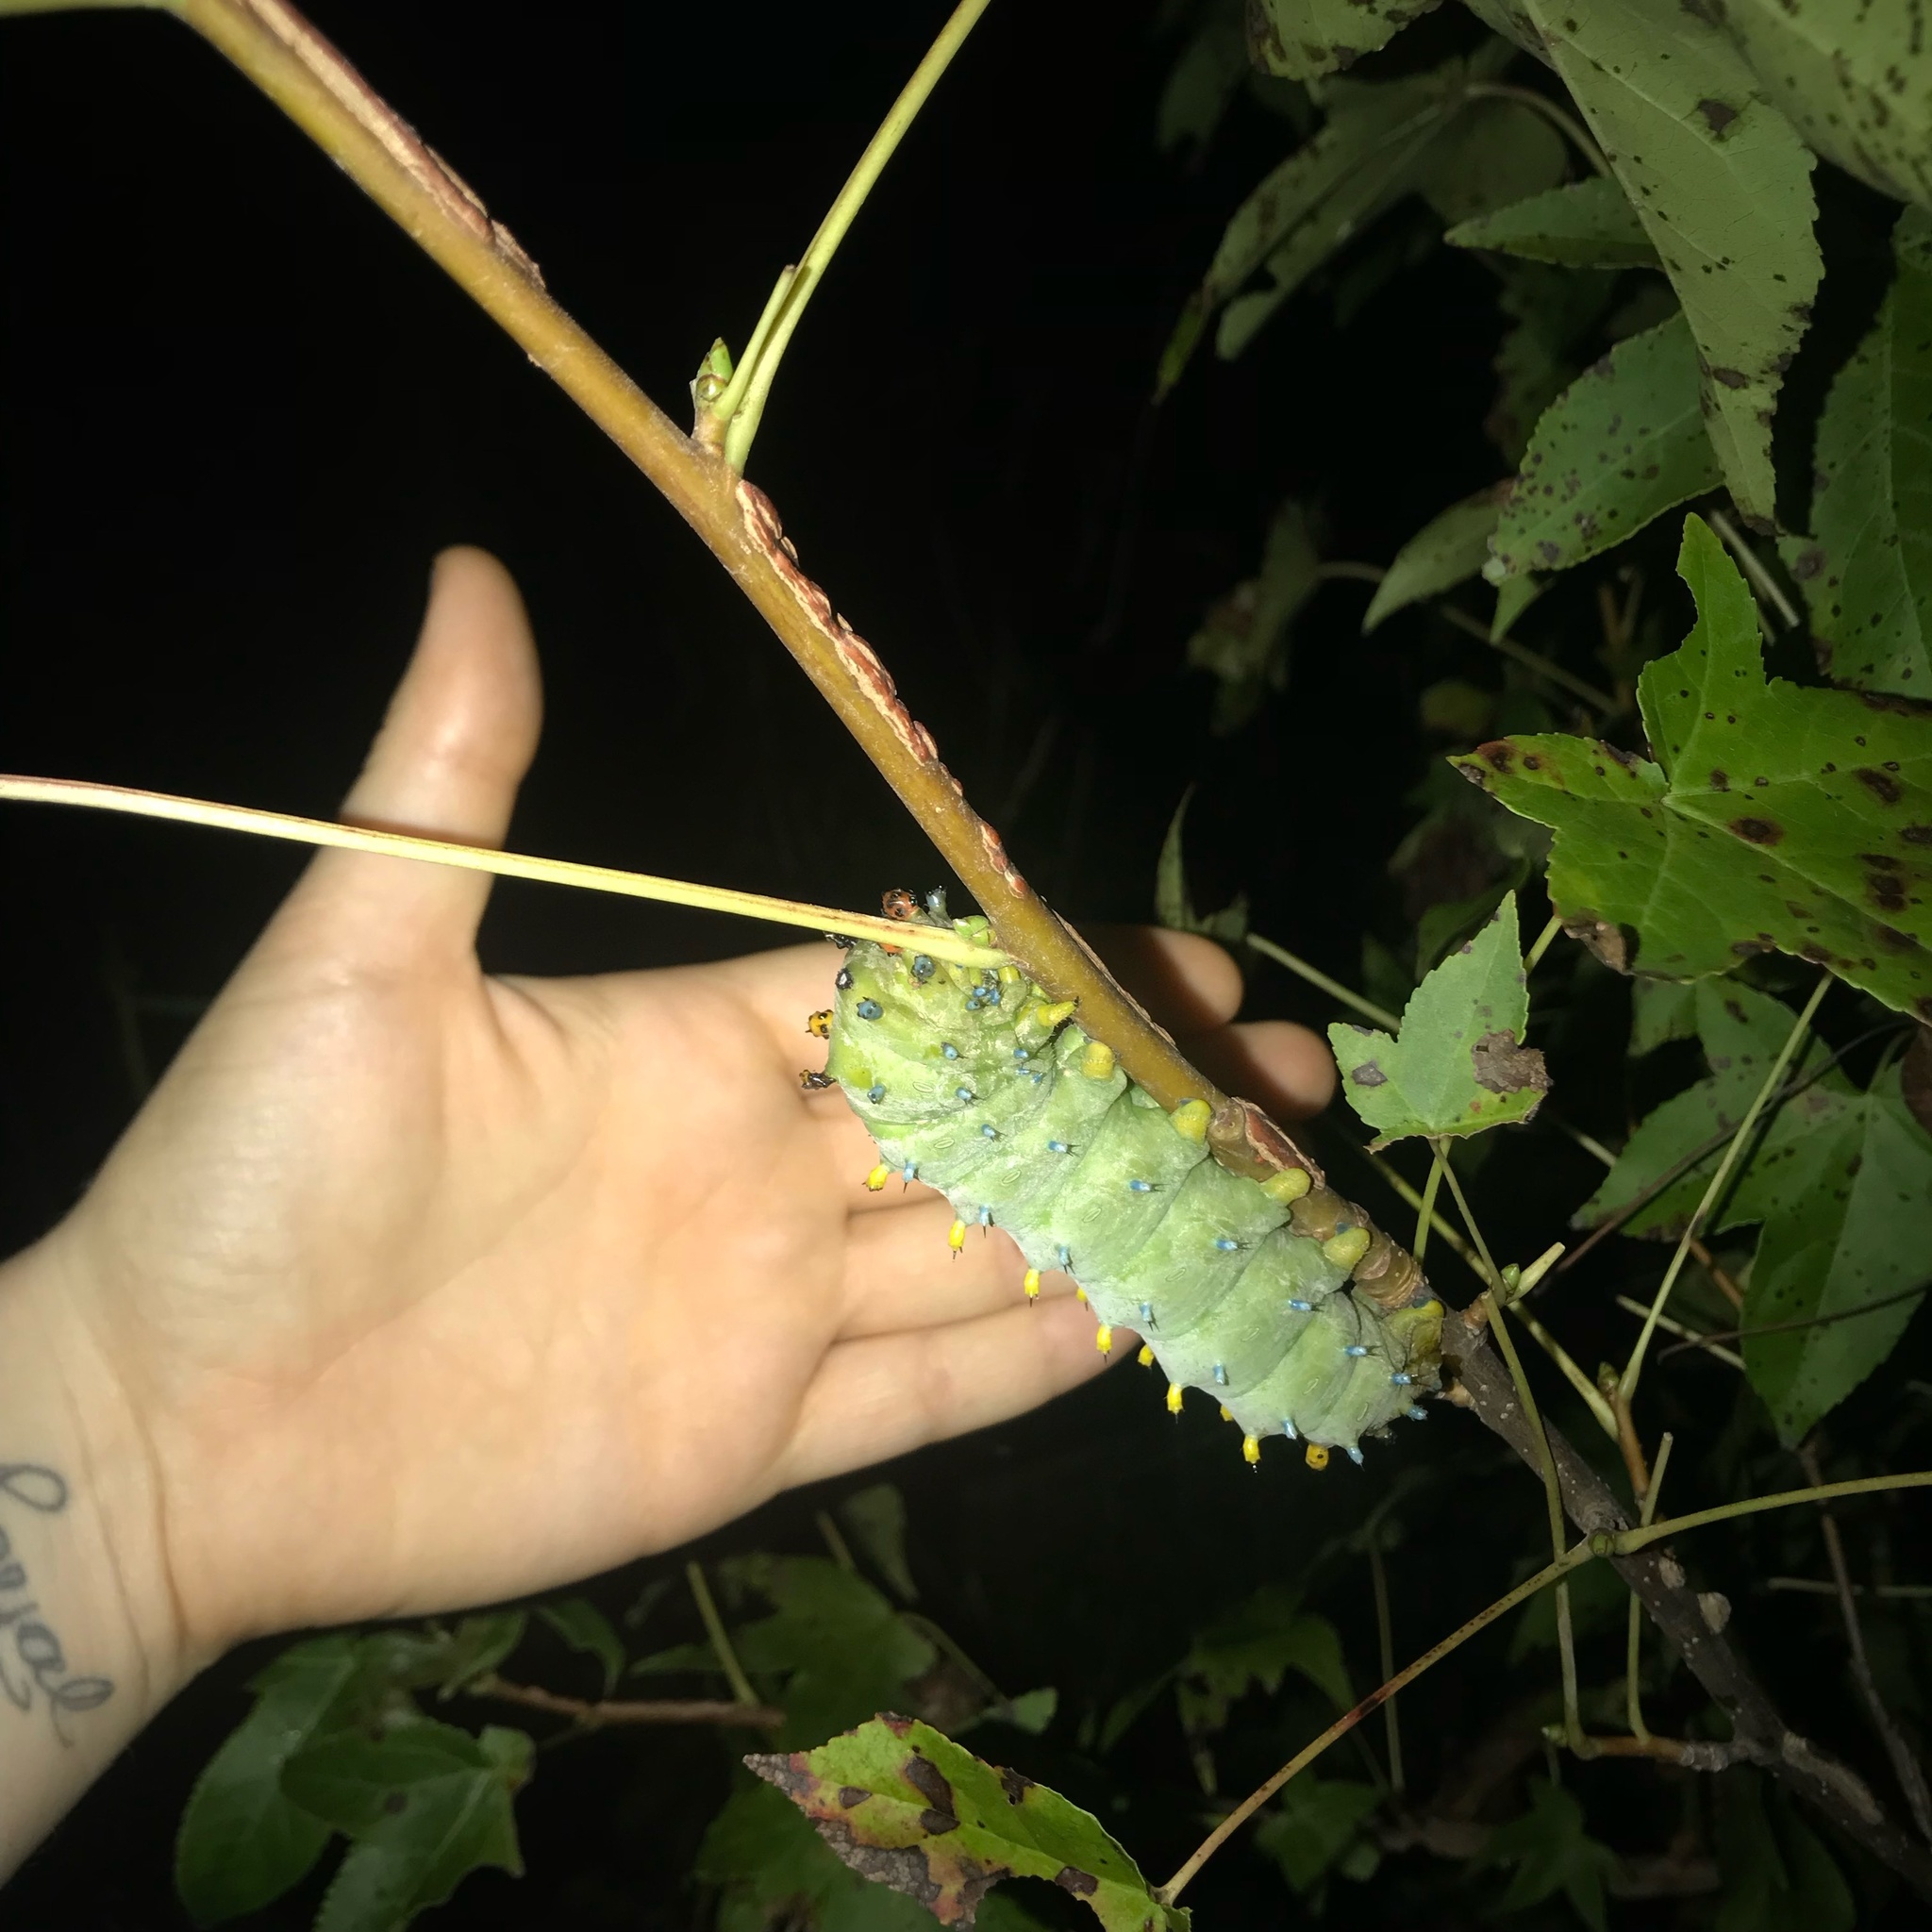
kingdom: Animalia
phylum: Arthropoda
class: Insecta
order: Lepidoptera
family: Saturniidae
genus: Hyalophora
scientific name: Hyalophora cecropia
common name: Cecropia silkmoth
